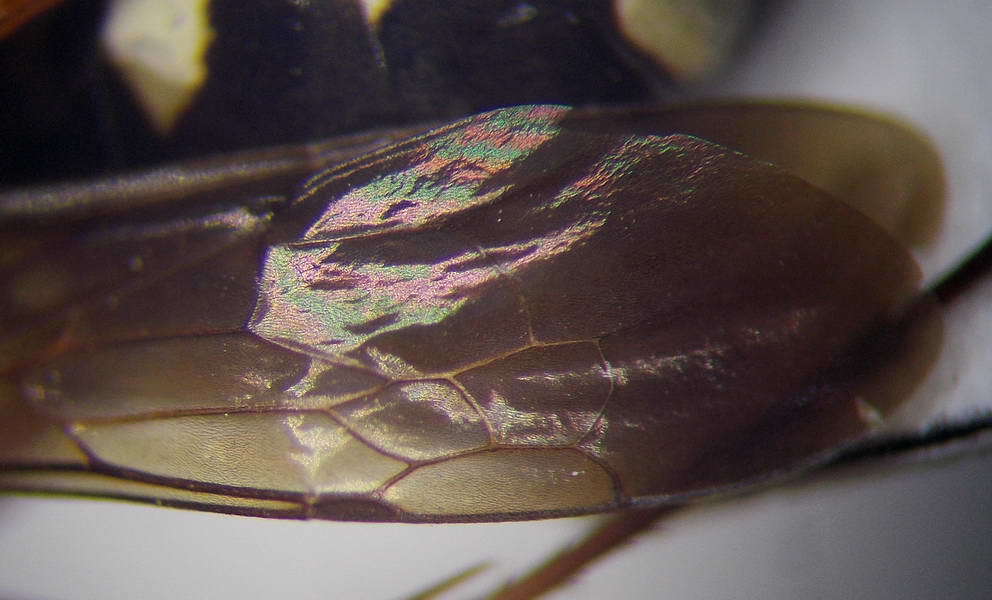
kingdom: Animalia
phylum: Arthropoda
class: Insecta
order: Hymenoptera
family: Pompilidae
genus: Cryptocheilus
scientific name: Cryptocheilus richardsi
